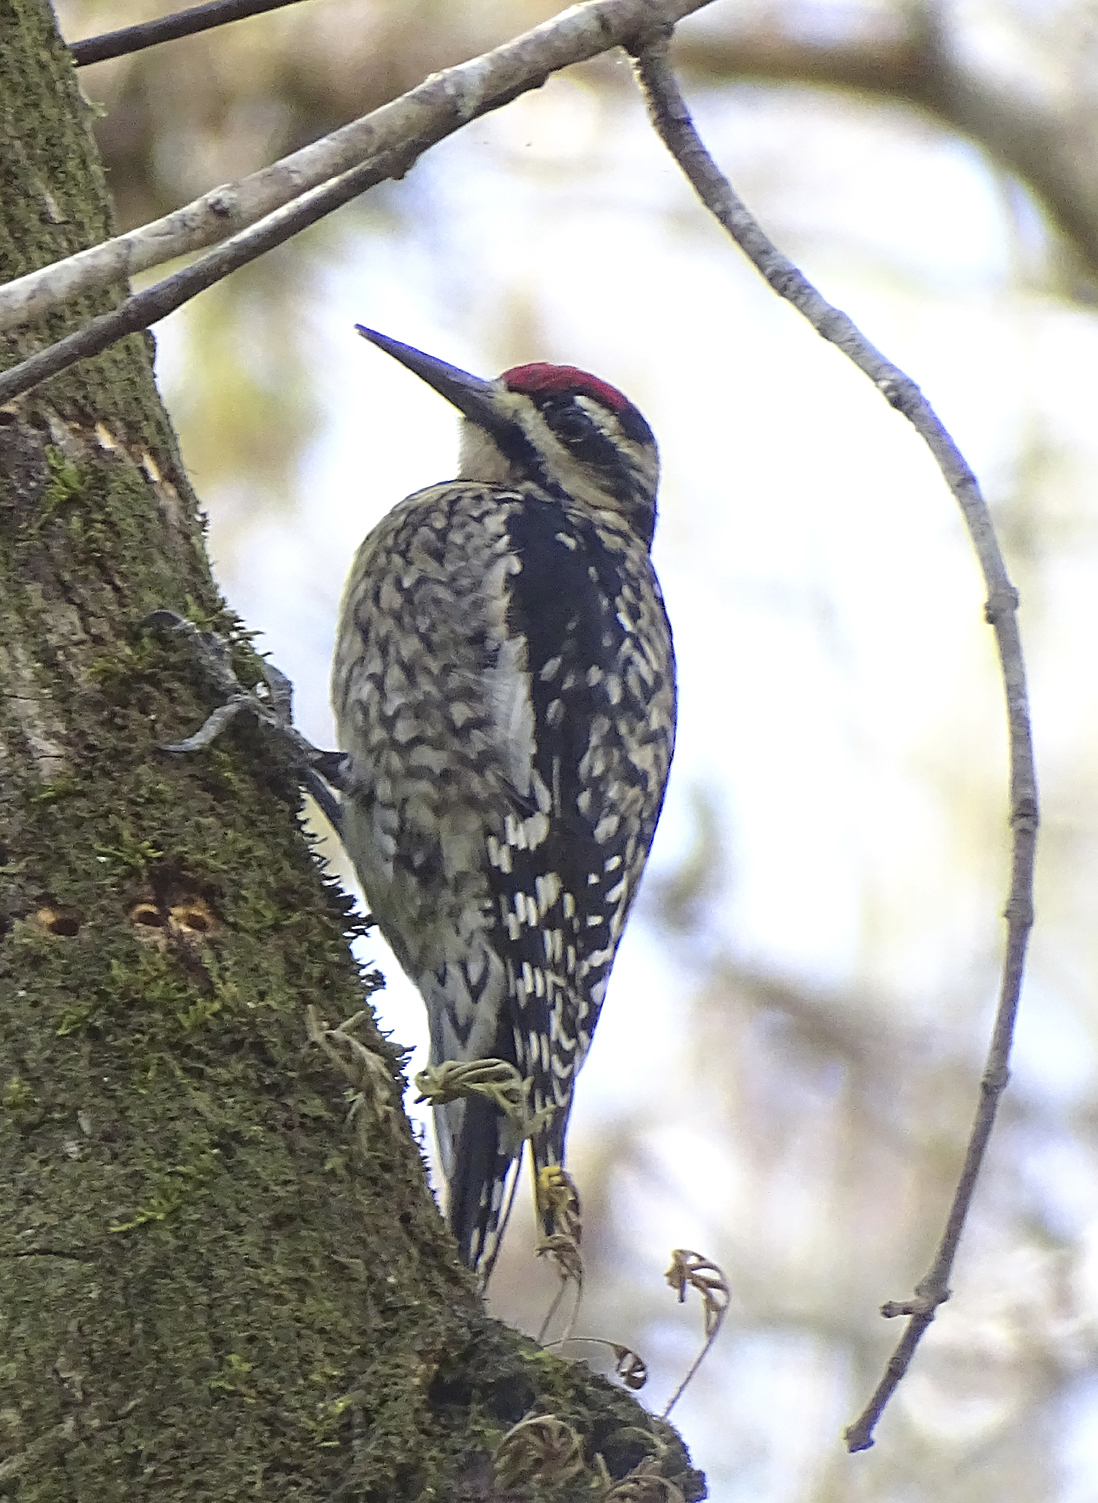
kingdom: Animalia
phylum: Chordata
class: Aves
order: Piciformes
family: Picidae
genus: Sphyrapicus
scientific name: Sphyrapicus varius
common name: Yellow-bellied sapsucker
